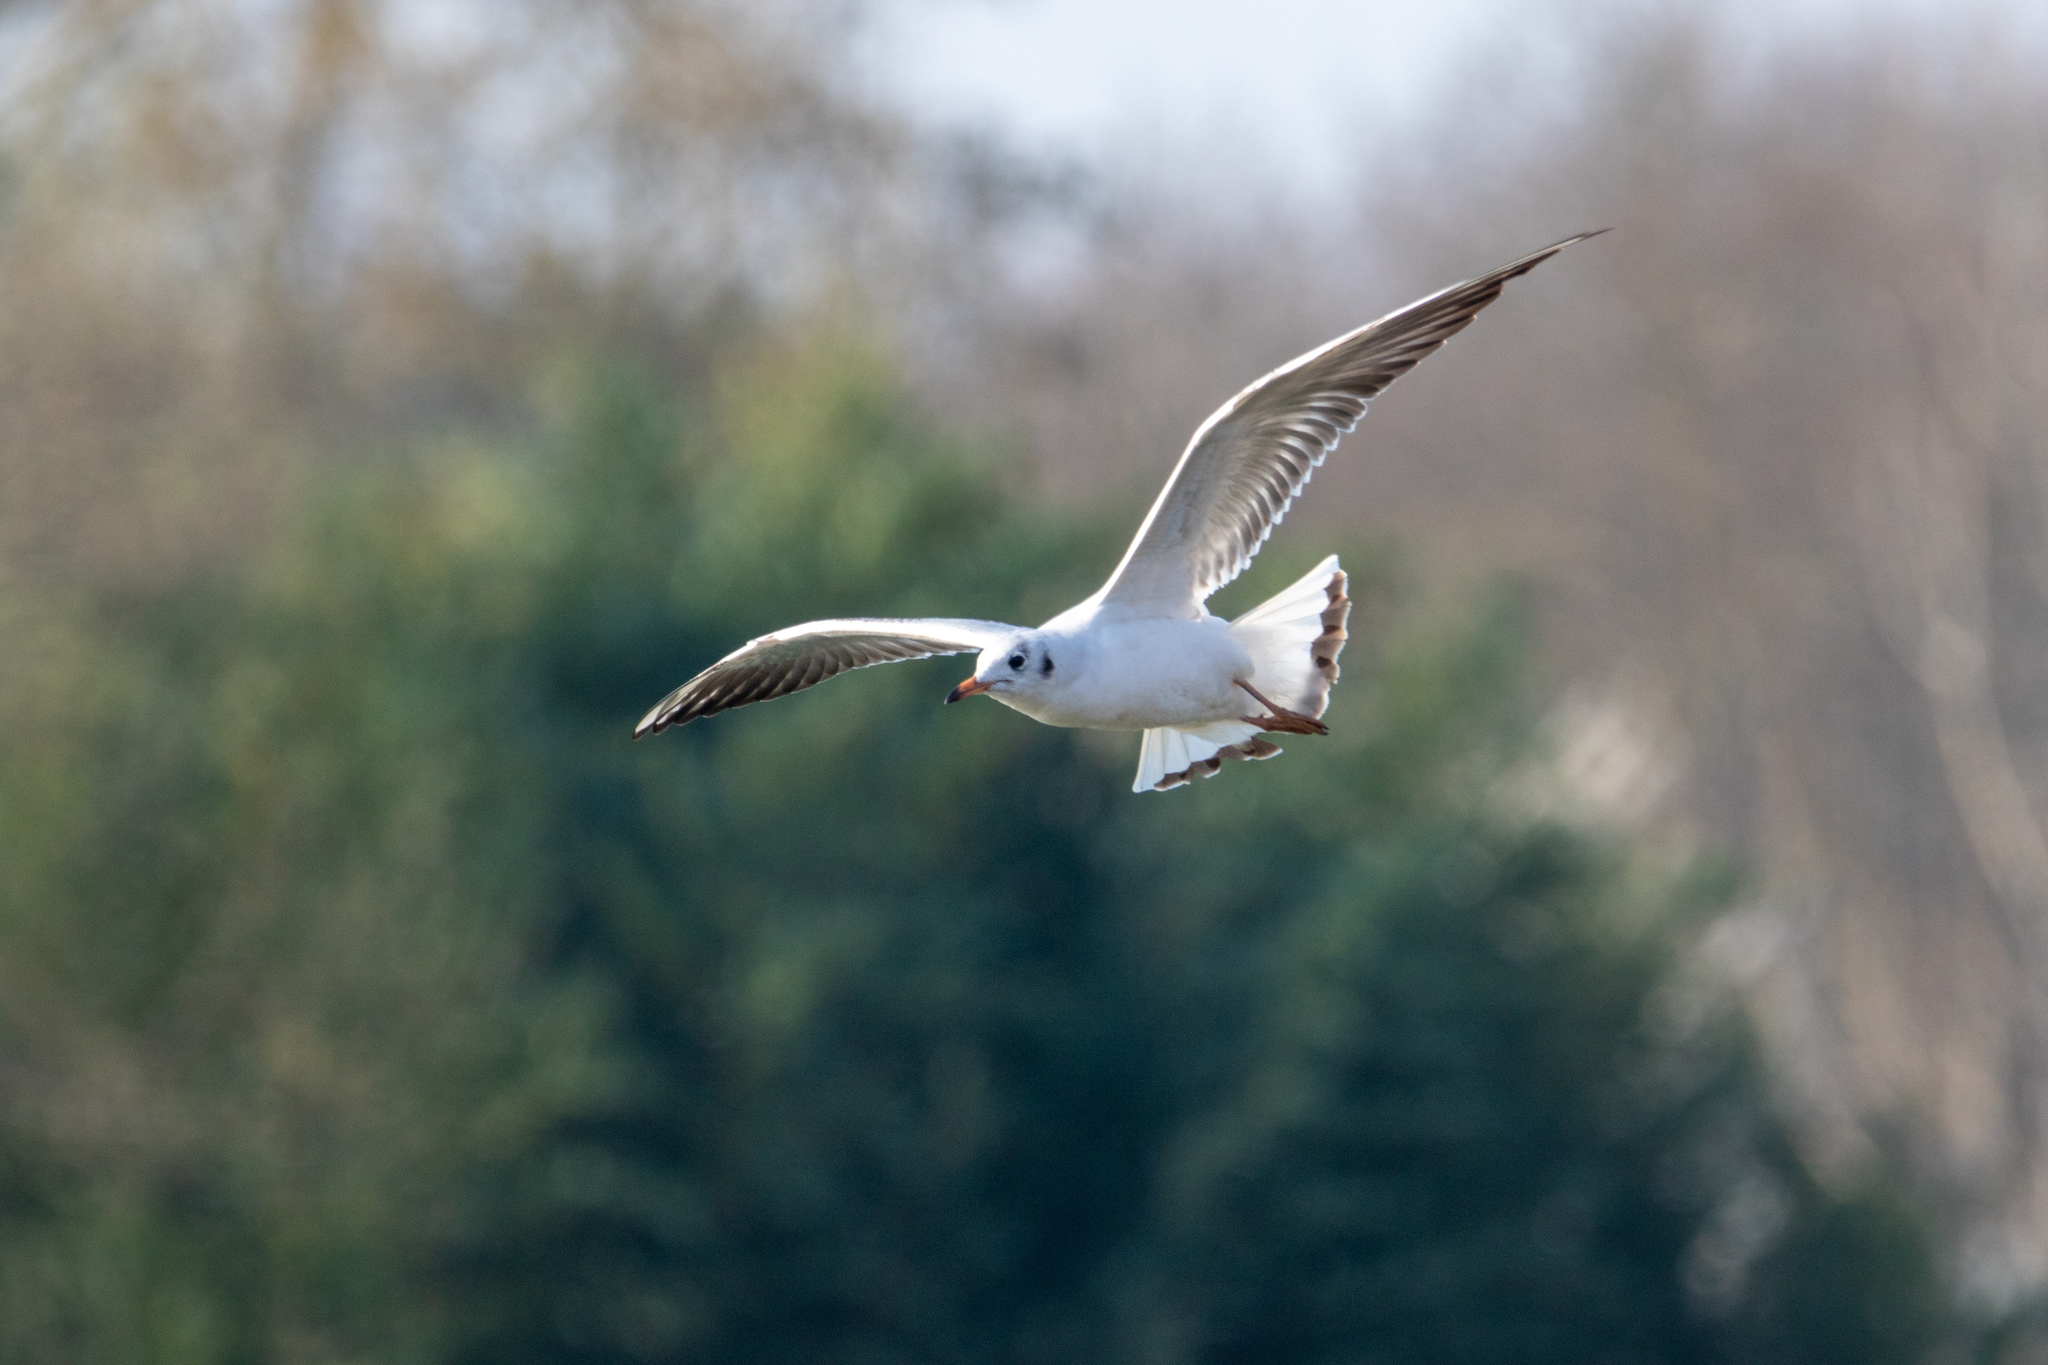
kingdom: Animalia
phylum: Chordata
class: Aves
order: Charadriiformes
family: Laridae
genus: Chroicocephalus
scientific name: Chroicocephalus ridibundus
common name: Black-headed gull
